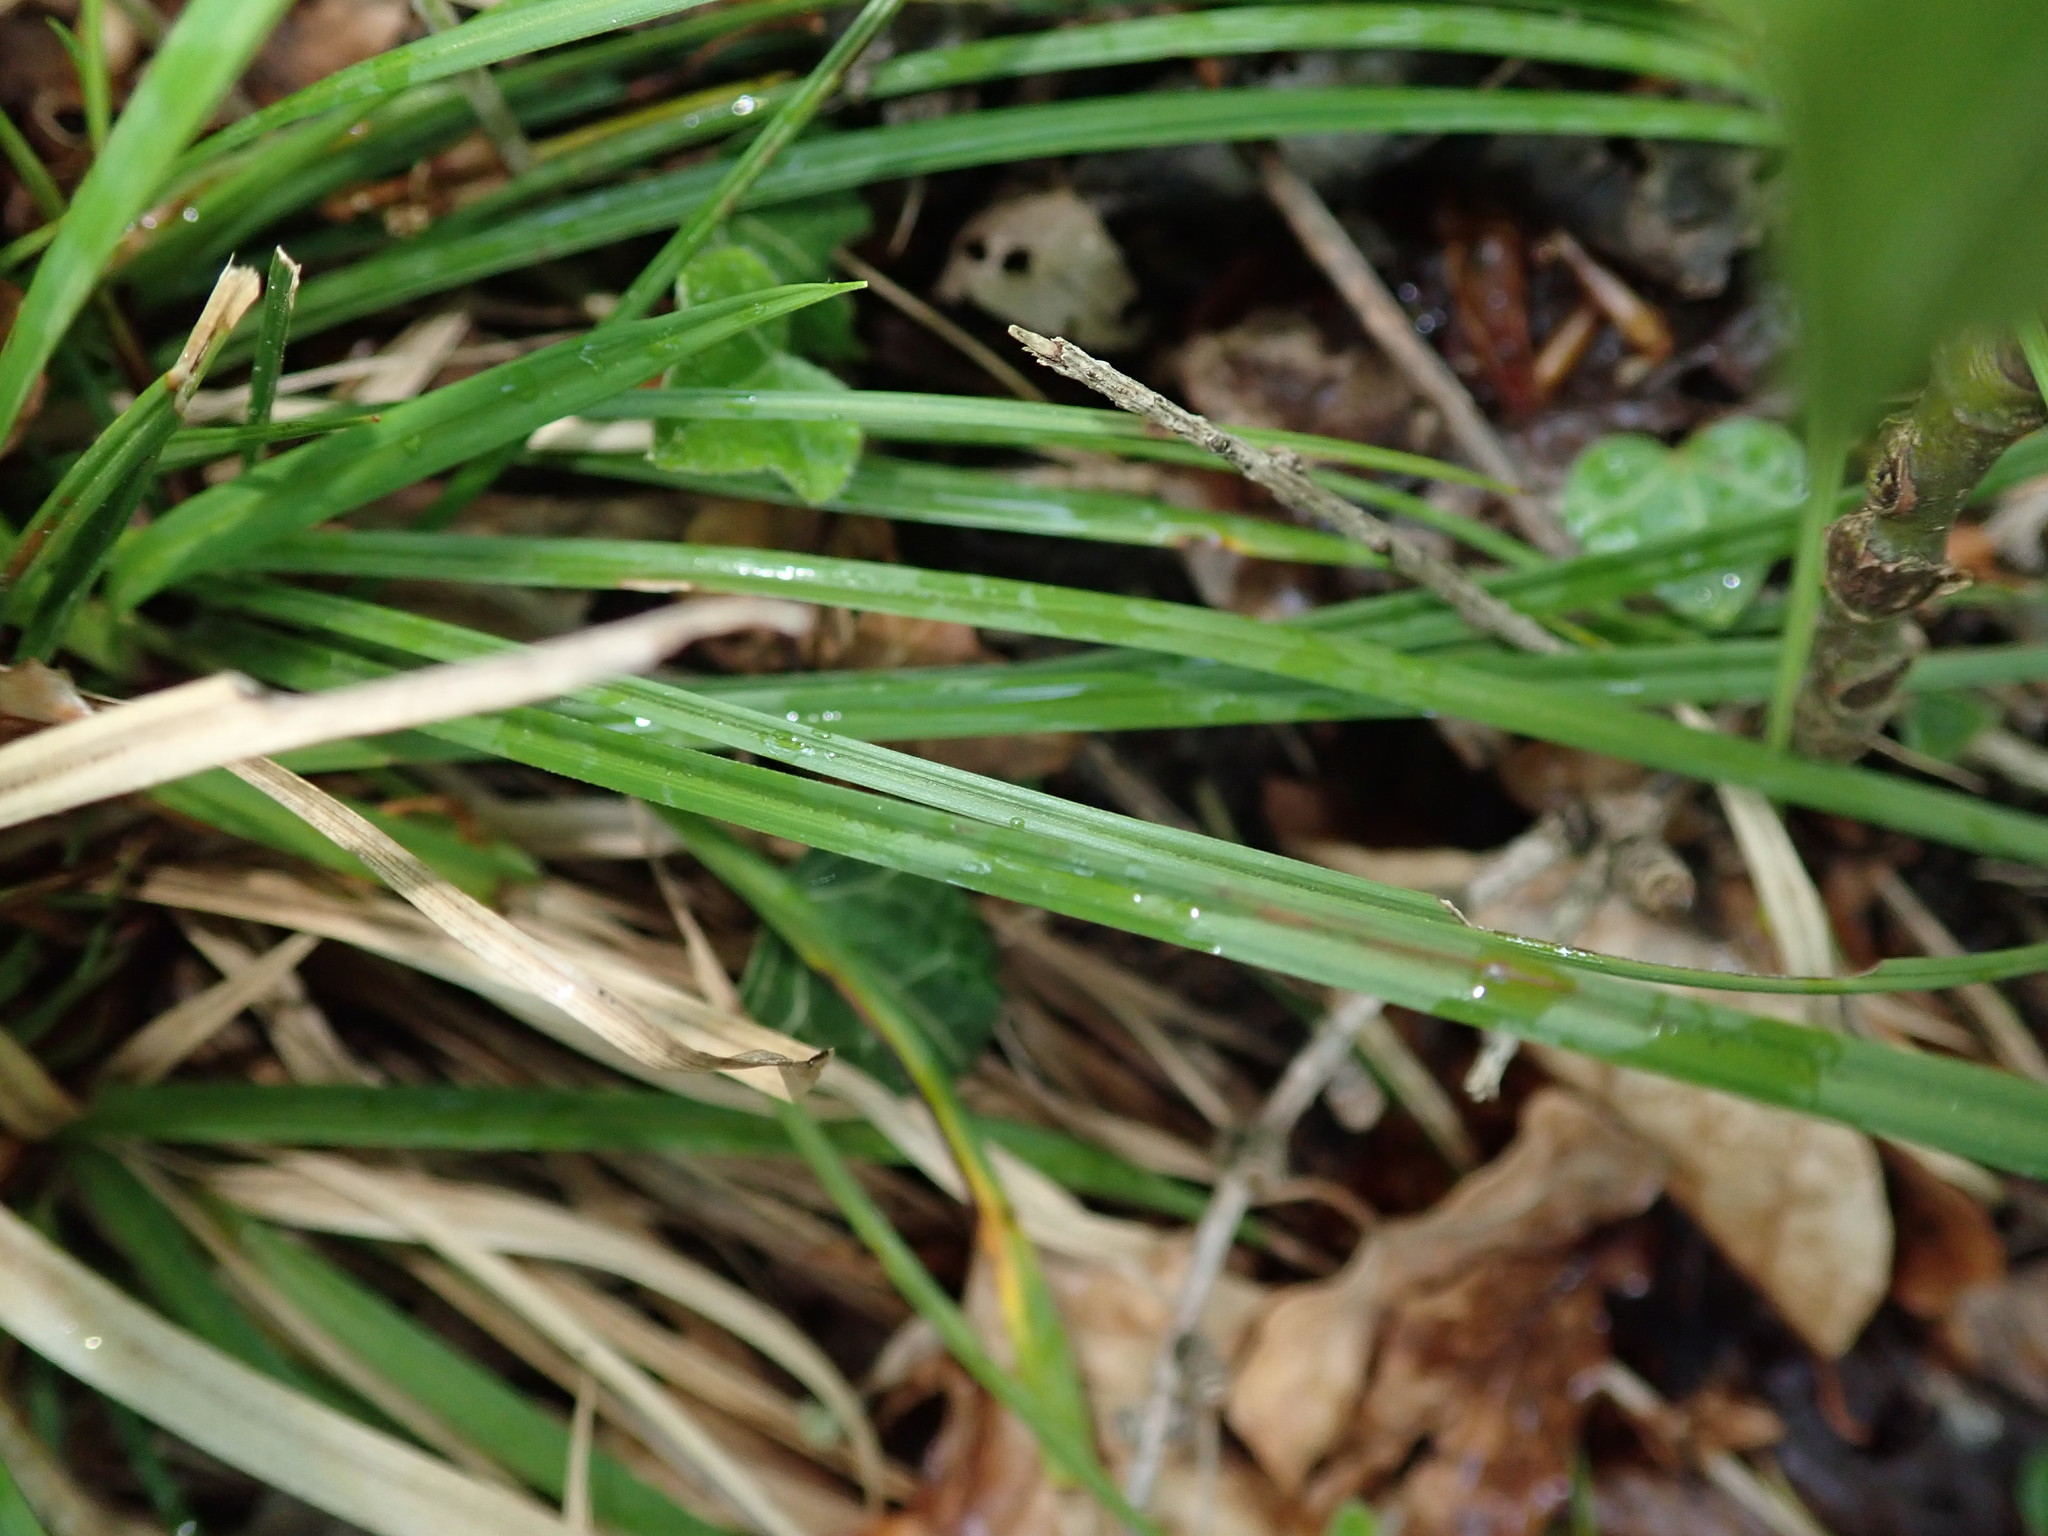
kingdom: Plantae
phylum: Tracheophyta
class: Liliopsida
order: Poales
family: Cyperaceae
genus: Carex
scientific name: Carex digitata
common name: Fingered sedge
